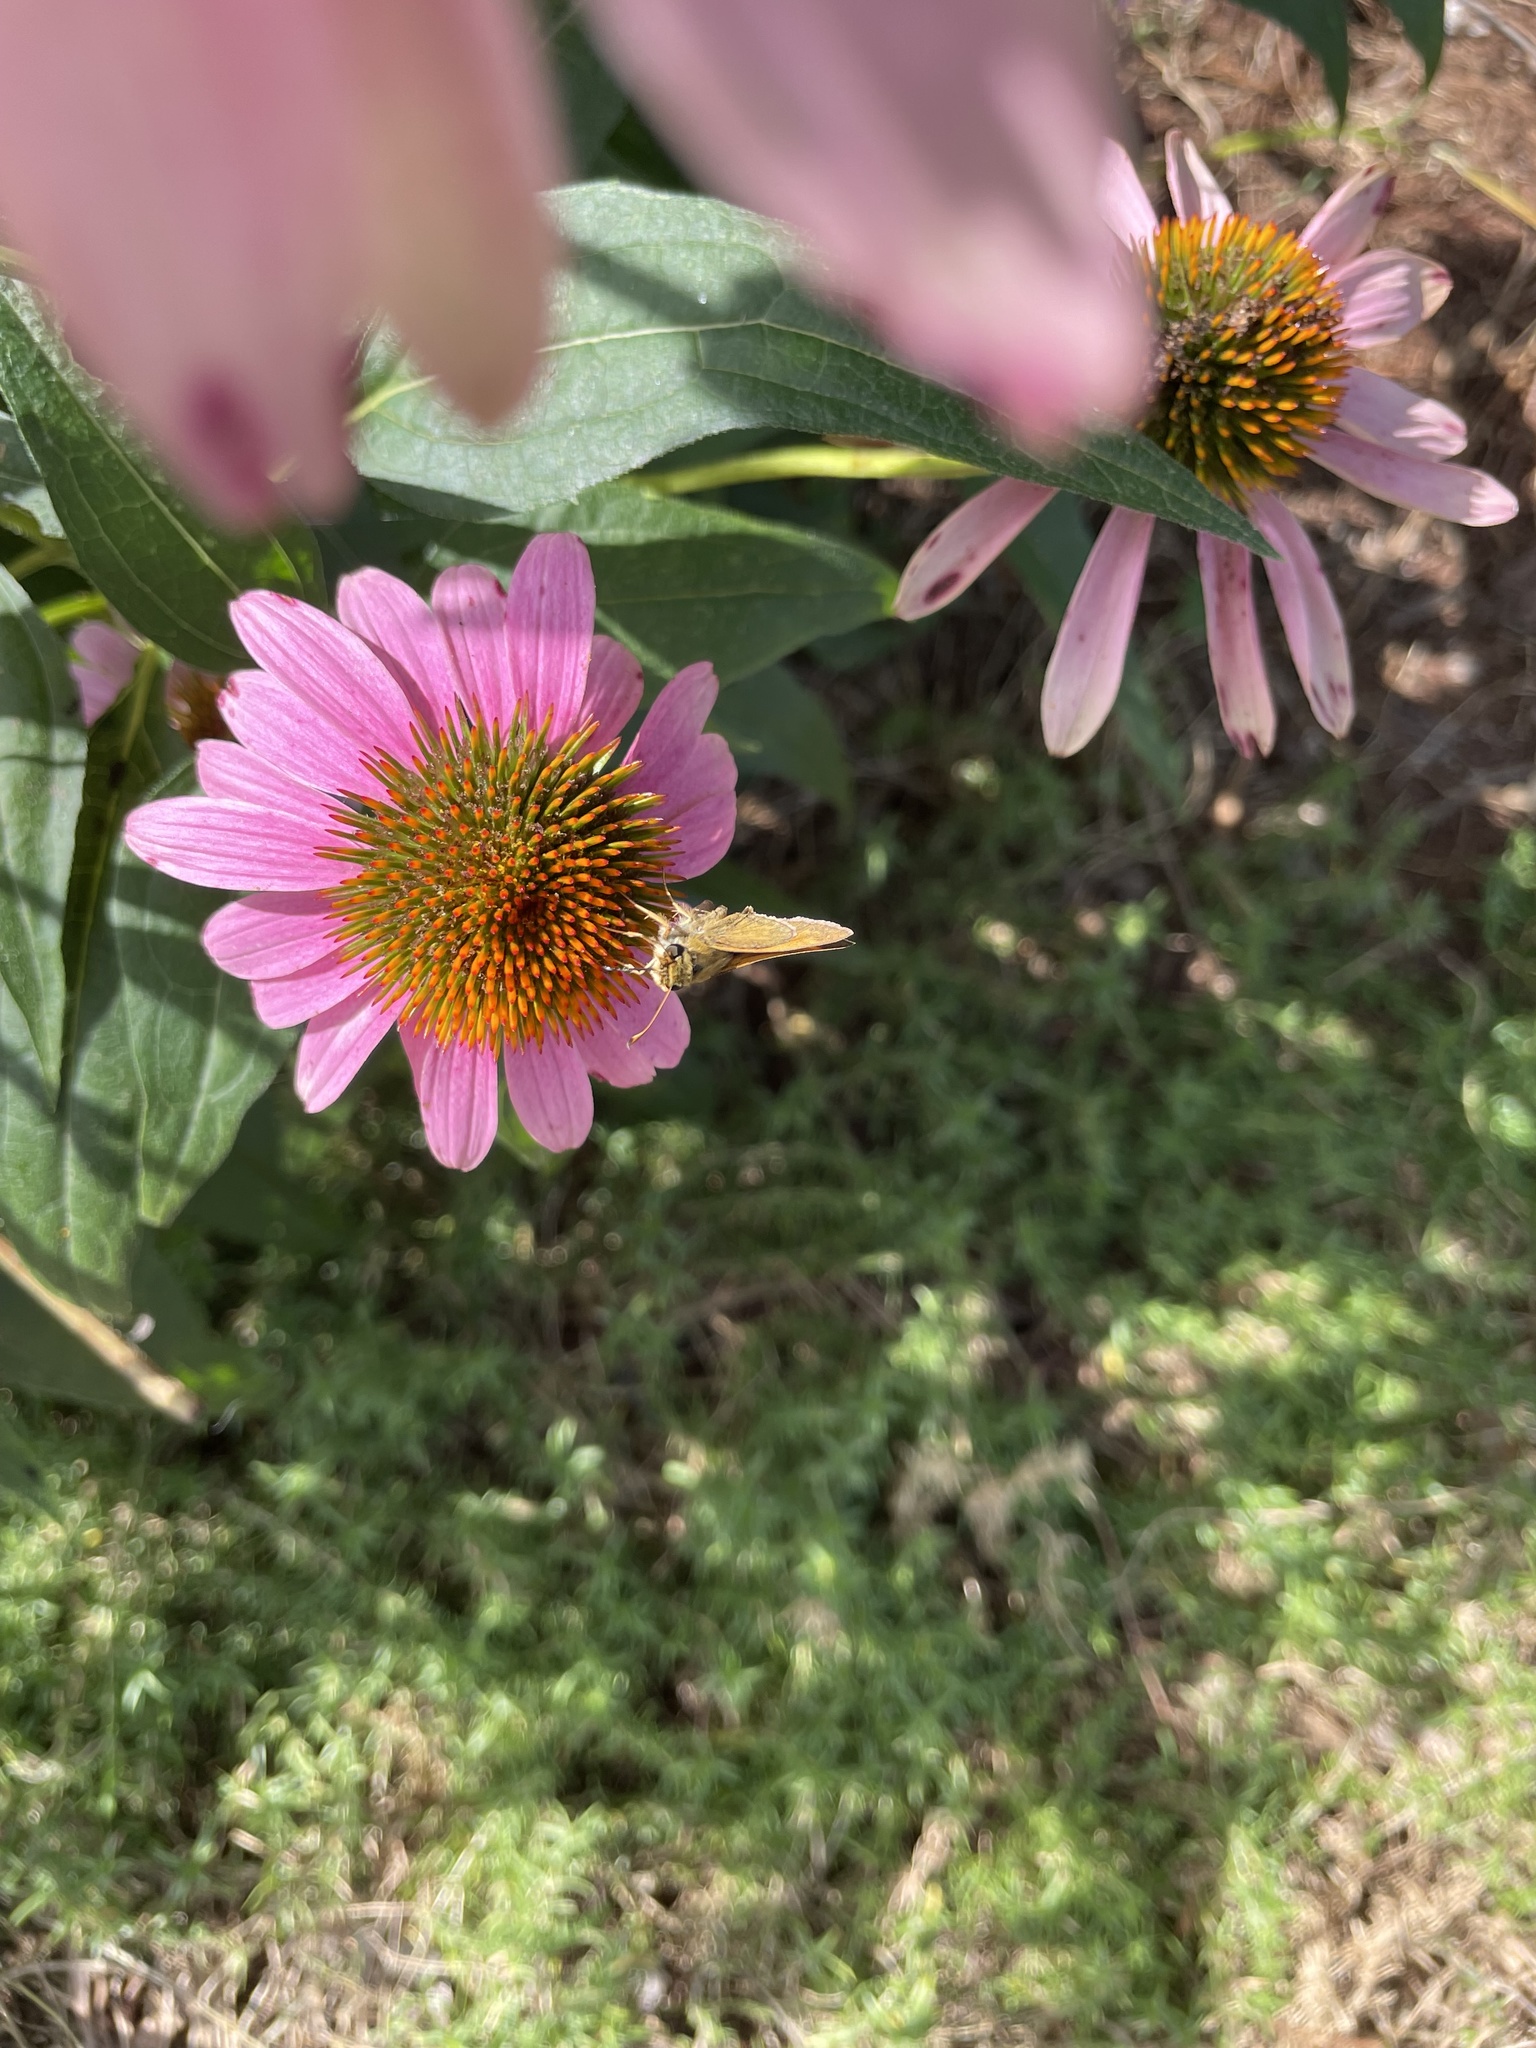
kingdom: Animalia
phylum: Arthropoda
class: Insecta
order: Lepidoptera
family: Hesperiidae
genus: Atalopedes
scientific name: Atalopedes
